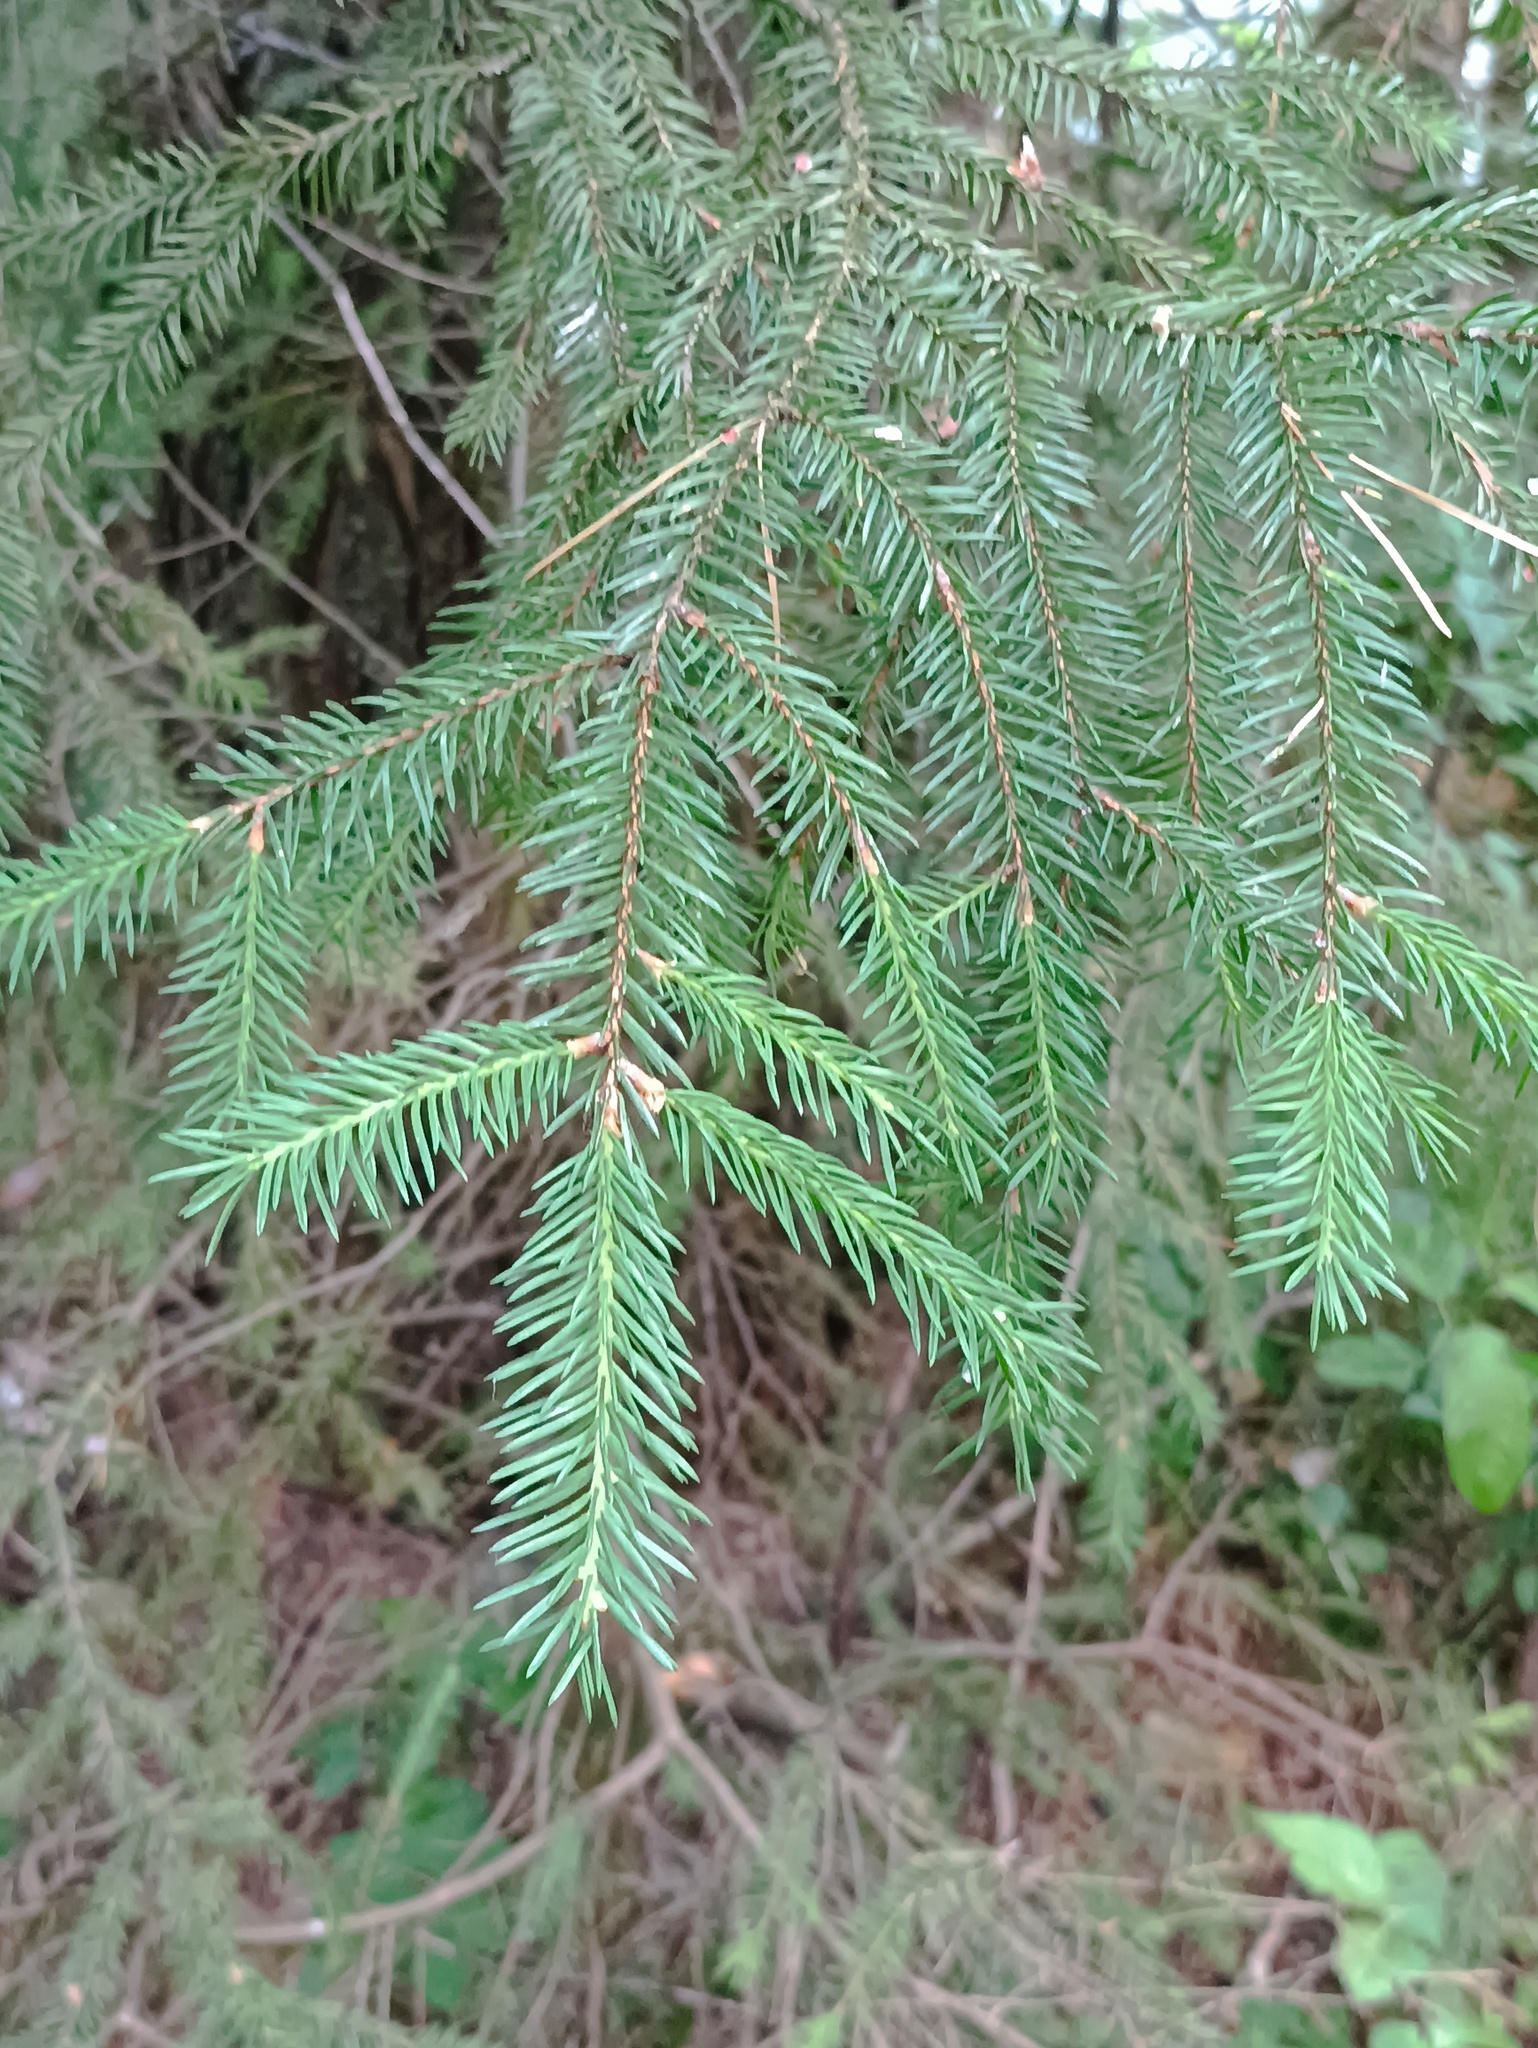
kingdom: Plantae
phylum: Tracheophyta
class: Pinopsida
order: Pinales
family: Pinaceae
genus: Picea
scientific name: Picea abies
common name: Norway spruce
